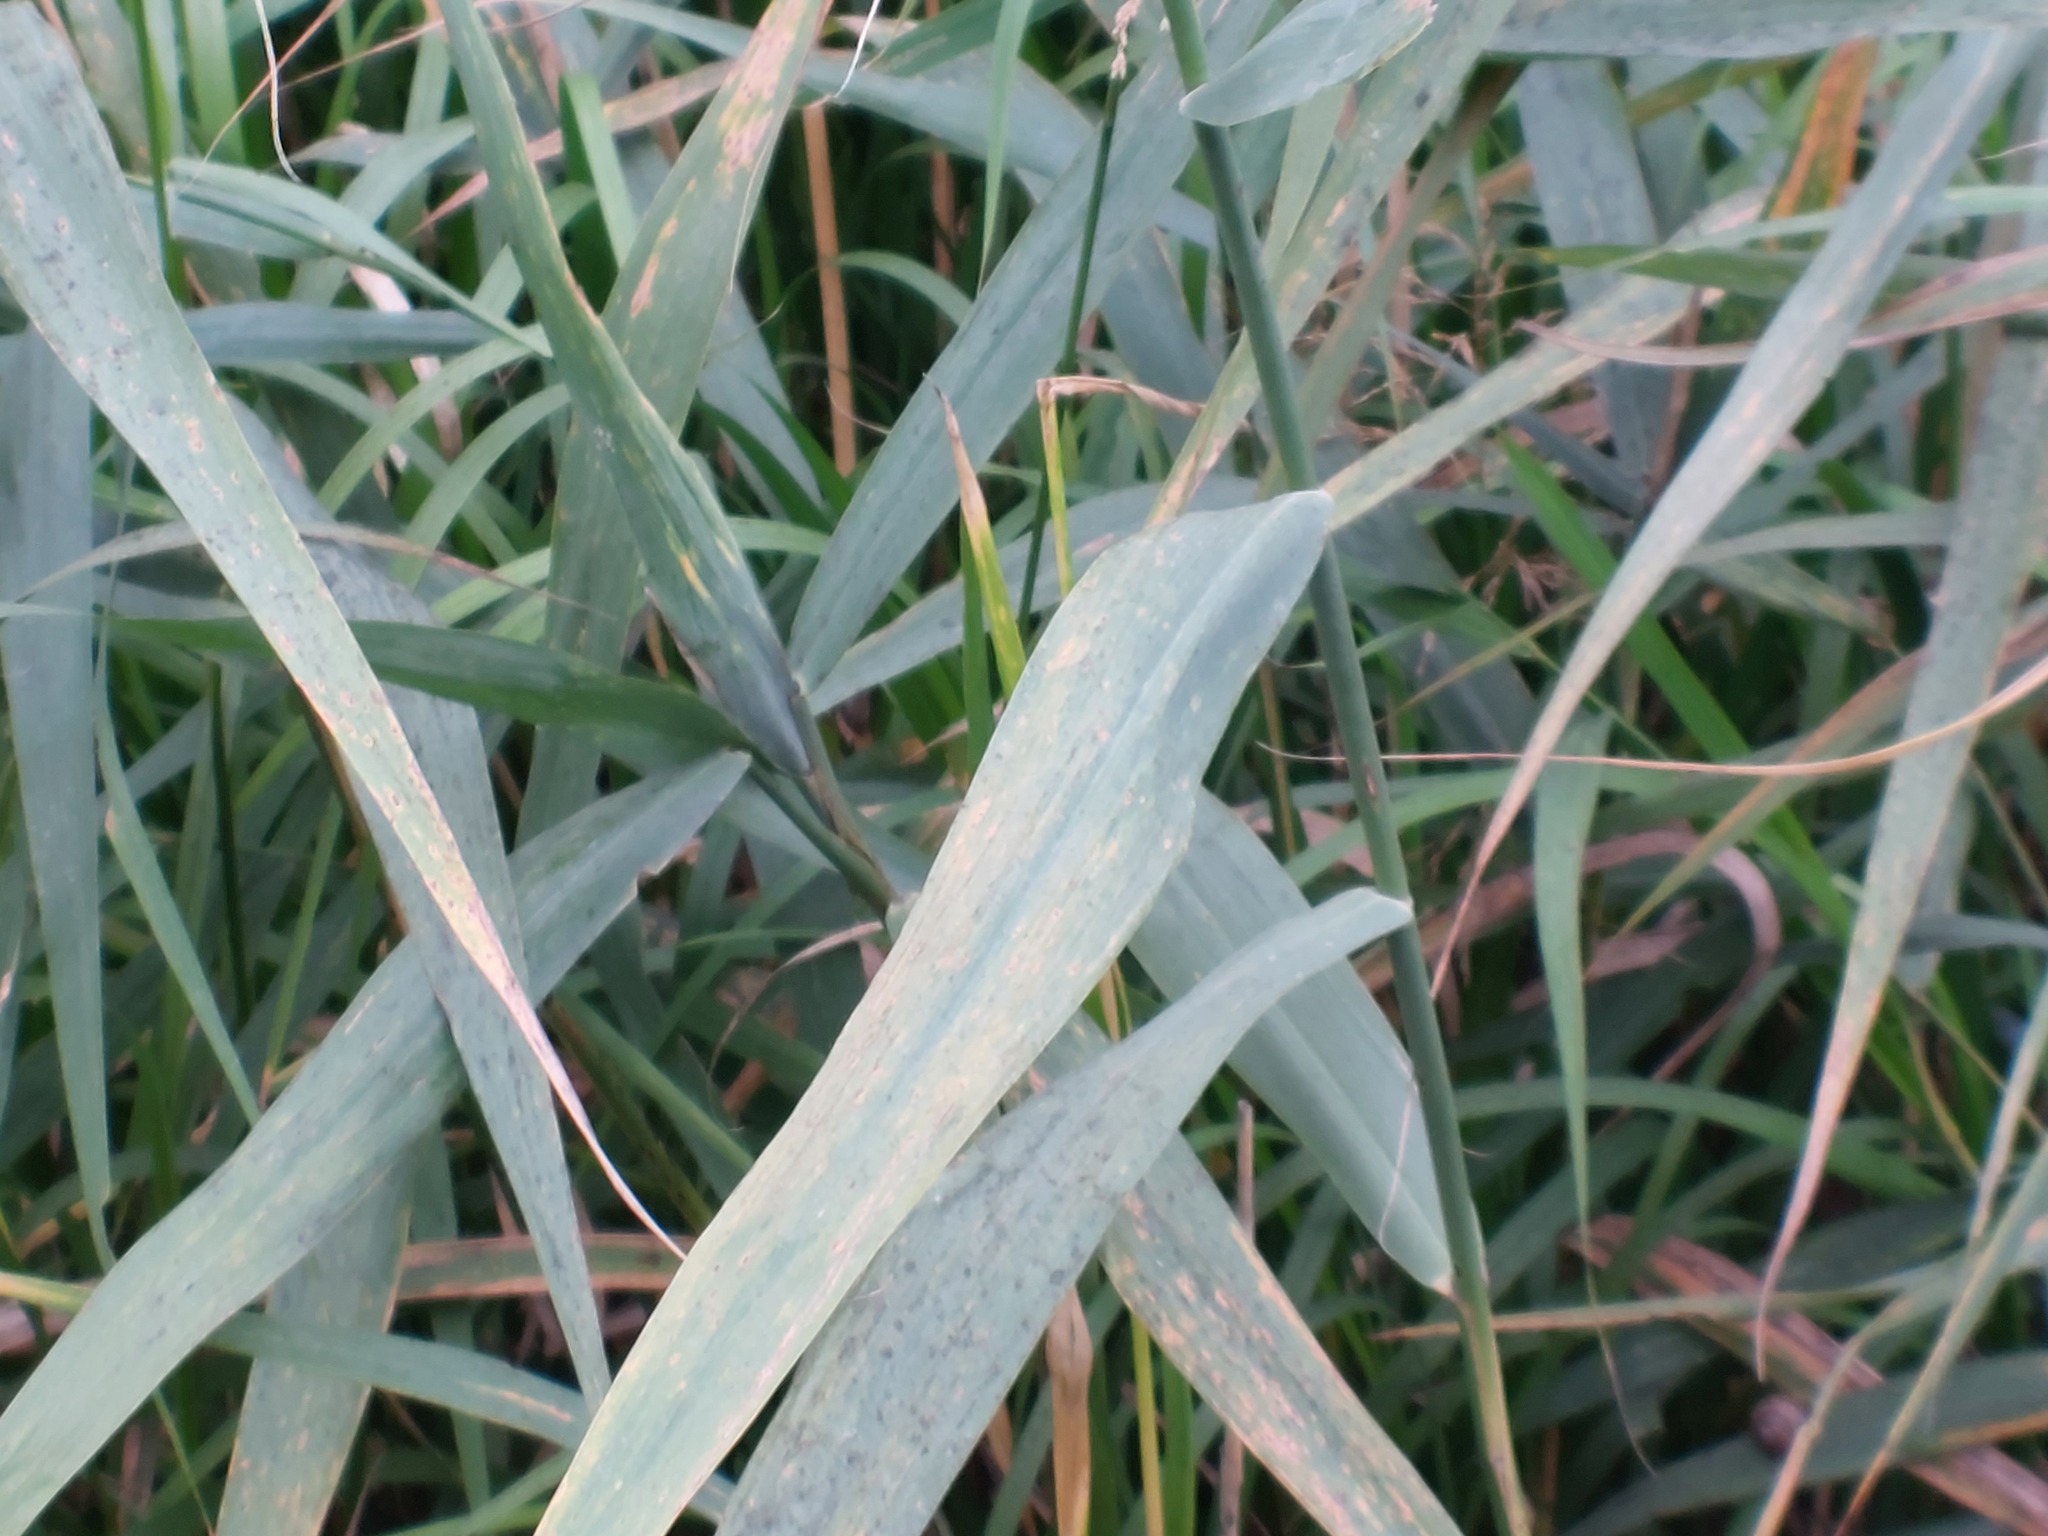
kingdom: Plantae
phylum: Tracheophyta
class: Liliopsida
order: Poales
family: Poaceae
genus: Phragmites
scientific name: Phragmites australis
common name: Common reed
